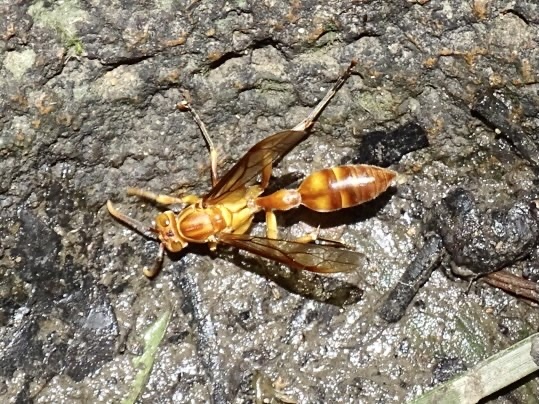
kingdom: Animalia
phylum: Arthropoda
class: Insecta
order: Hymenoptera
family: Vespidae
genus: Parapolybia
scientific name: Parapolybia indica
